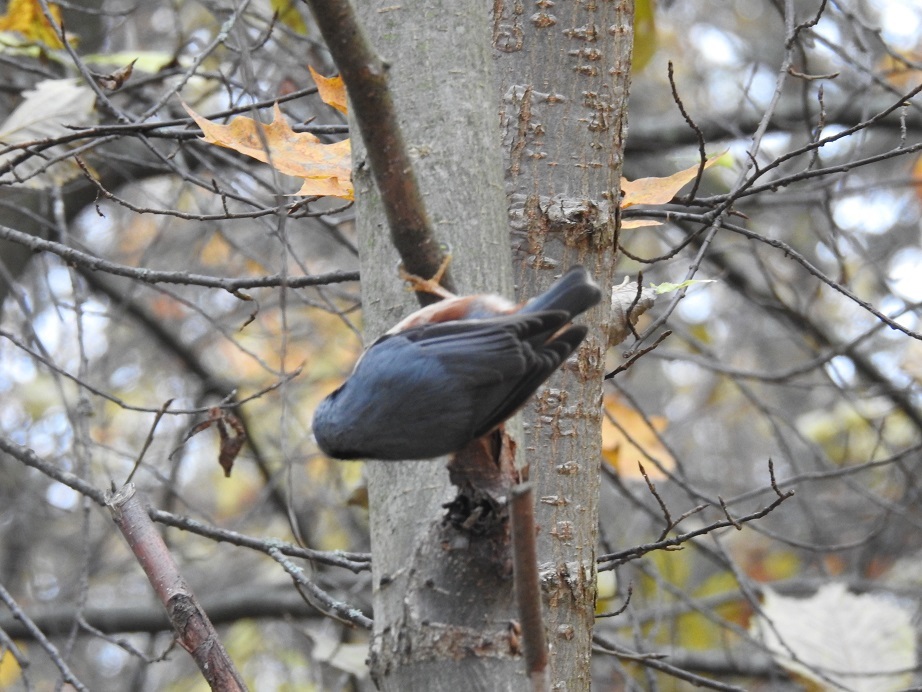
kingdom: Animalia
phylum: Chordata
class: Aves
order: Passeriformes
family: Sittidae
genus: Sitta
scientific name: Sitta europaea
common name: Eurasian nuthatch
